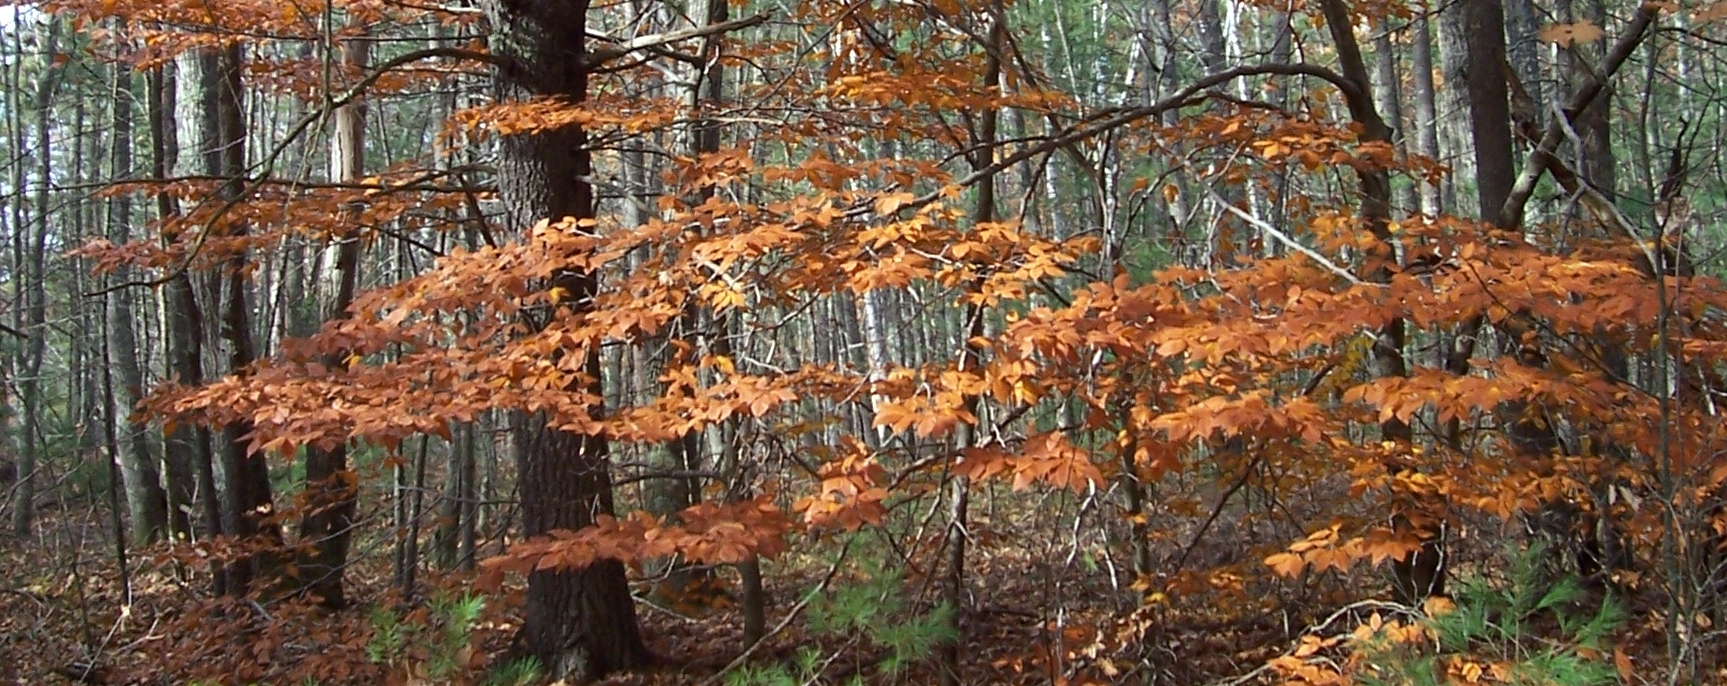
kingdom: Plantae
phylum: Tracheophyta
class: Magnoliopsida
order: Fagales
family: Fagaceae
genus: Fagus
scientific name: Fagus grandifolia
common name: American beech
